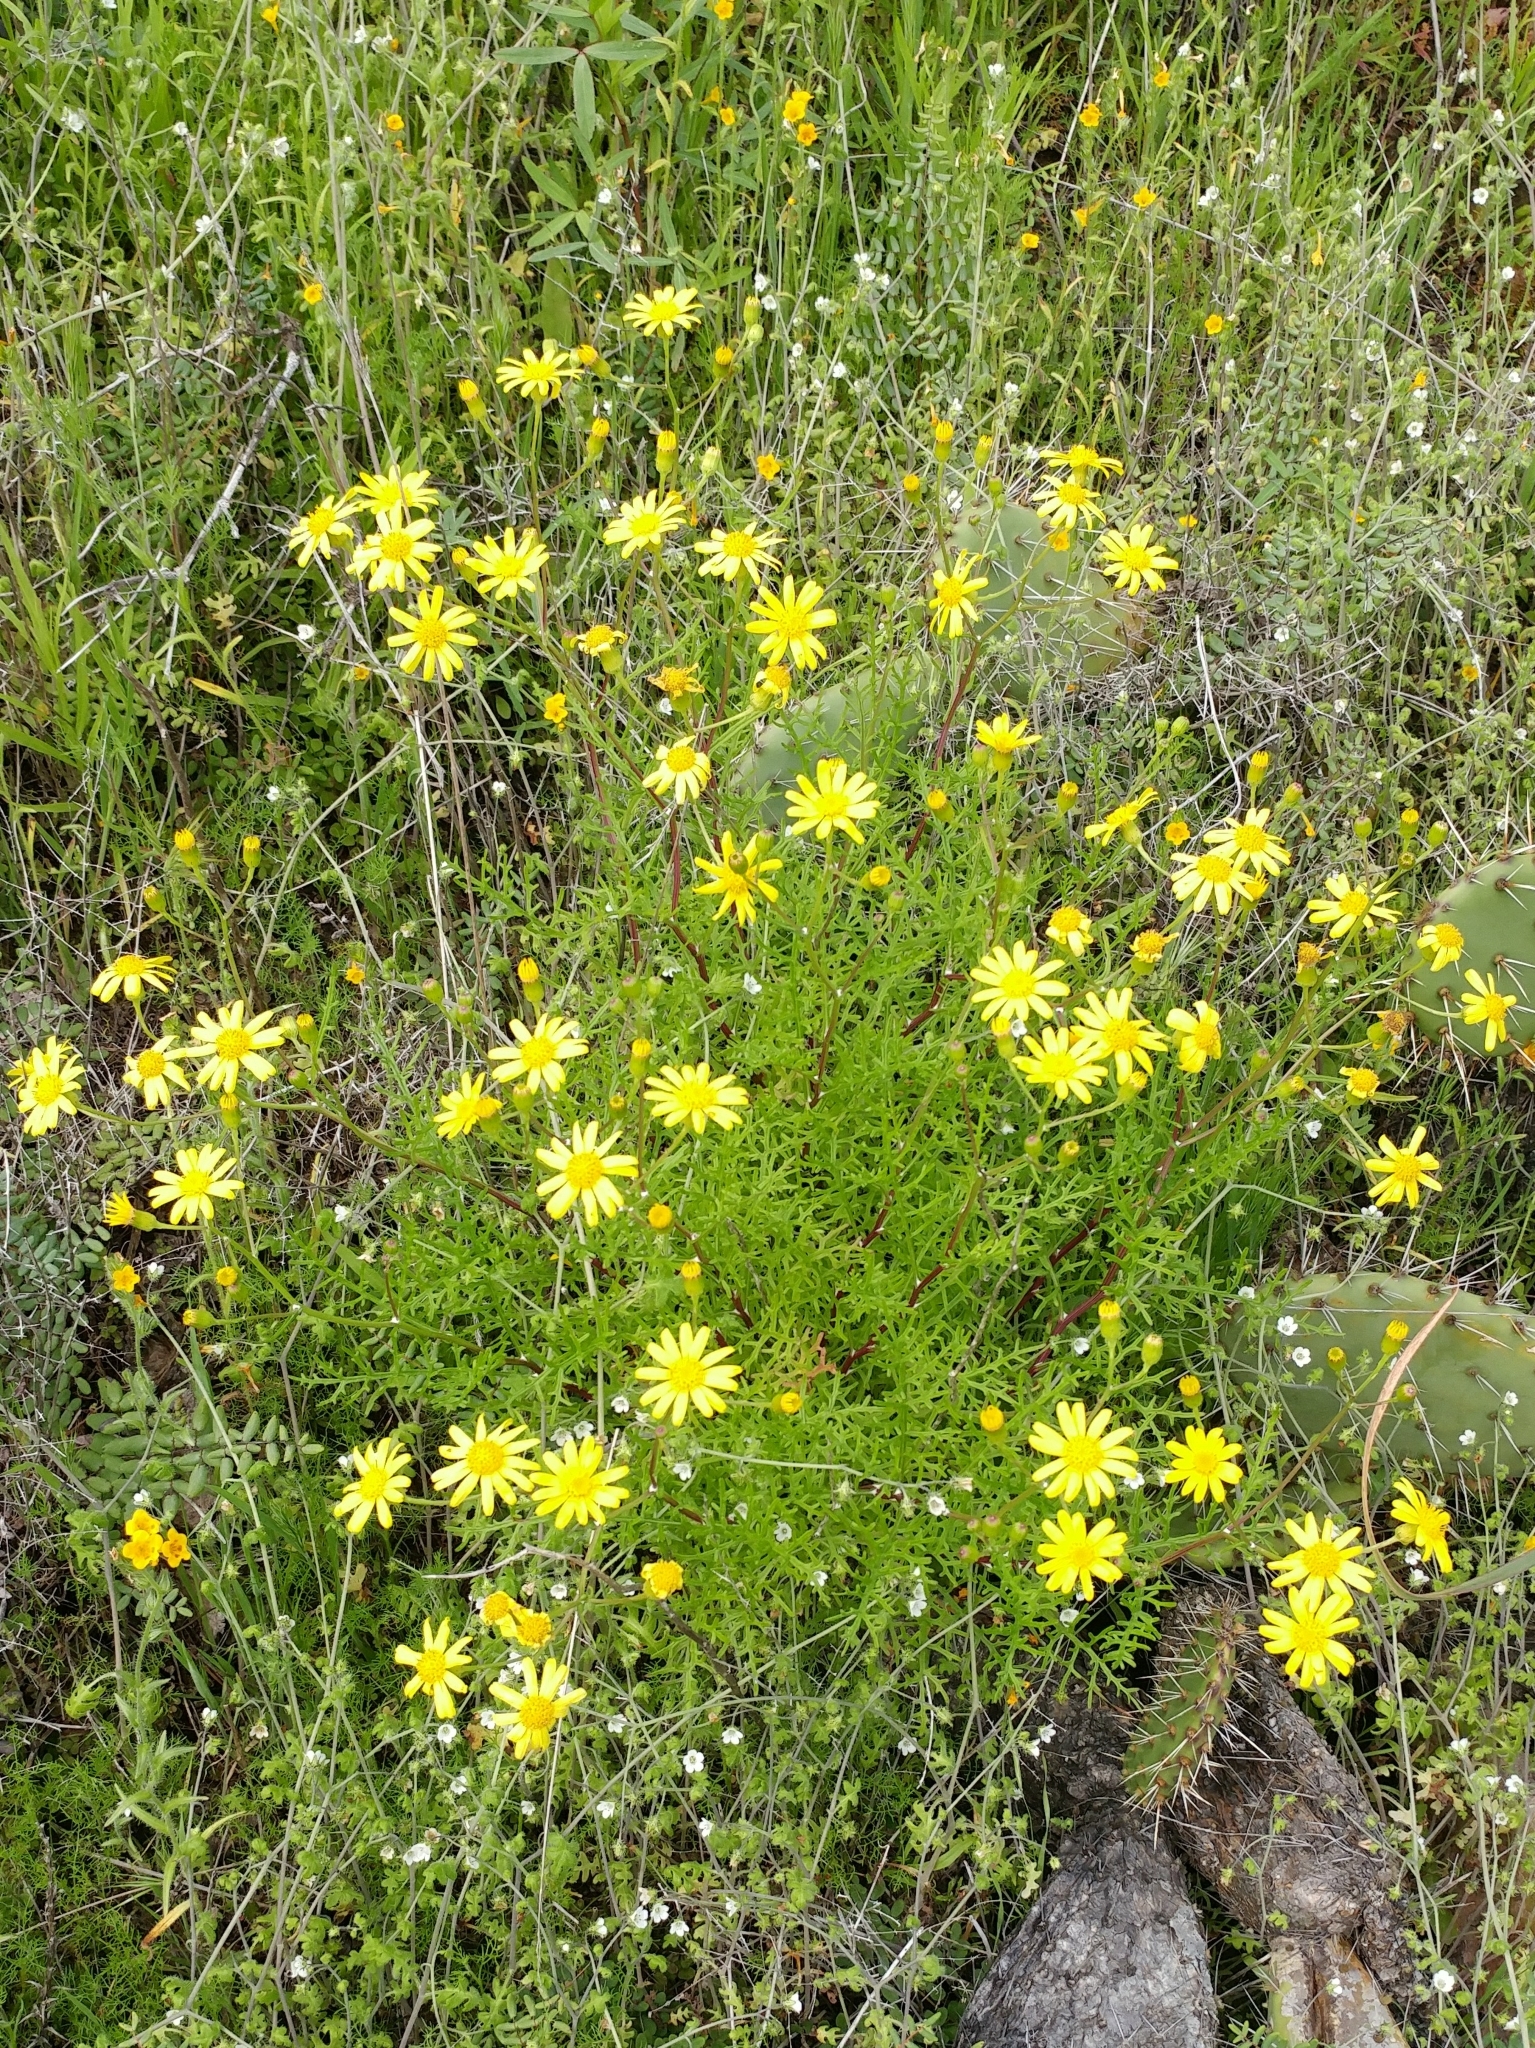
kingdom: Plantae
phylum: Tracheophyta
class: Magnoliopsida
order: Asterales
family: Asteraceae
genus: Senecio
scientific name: Senecio lyonii
